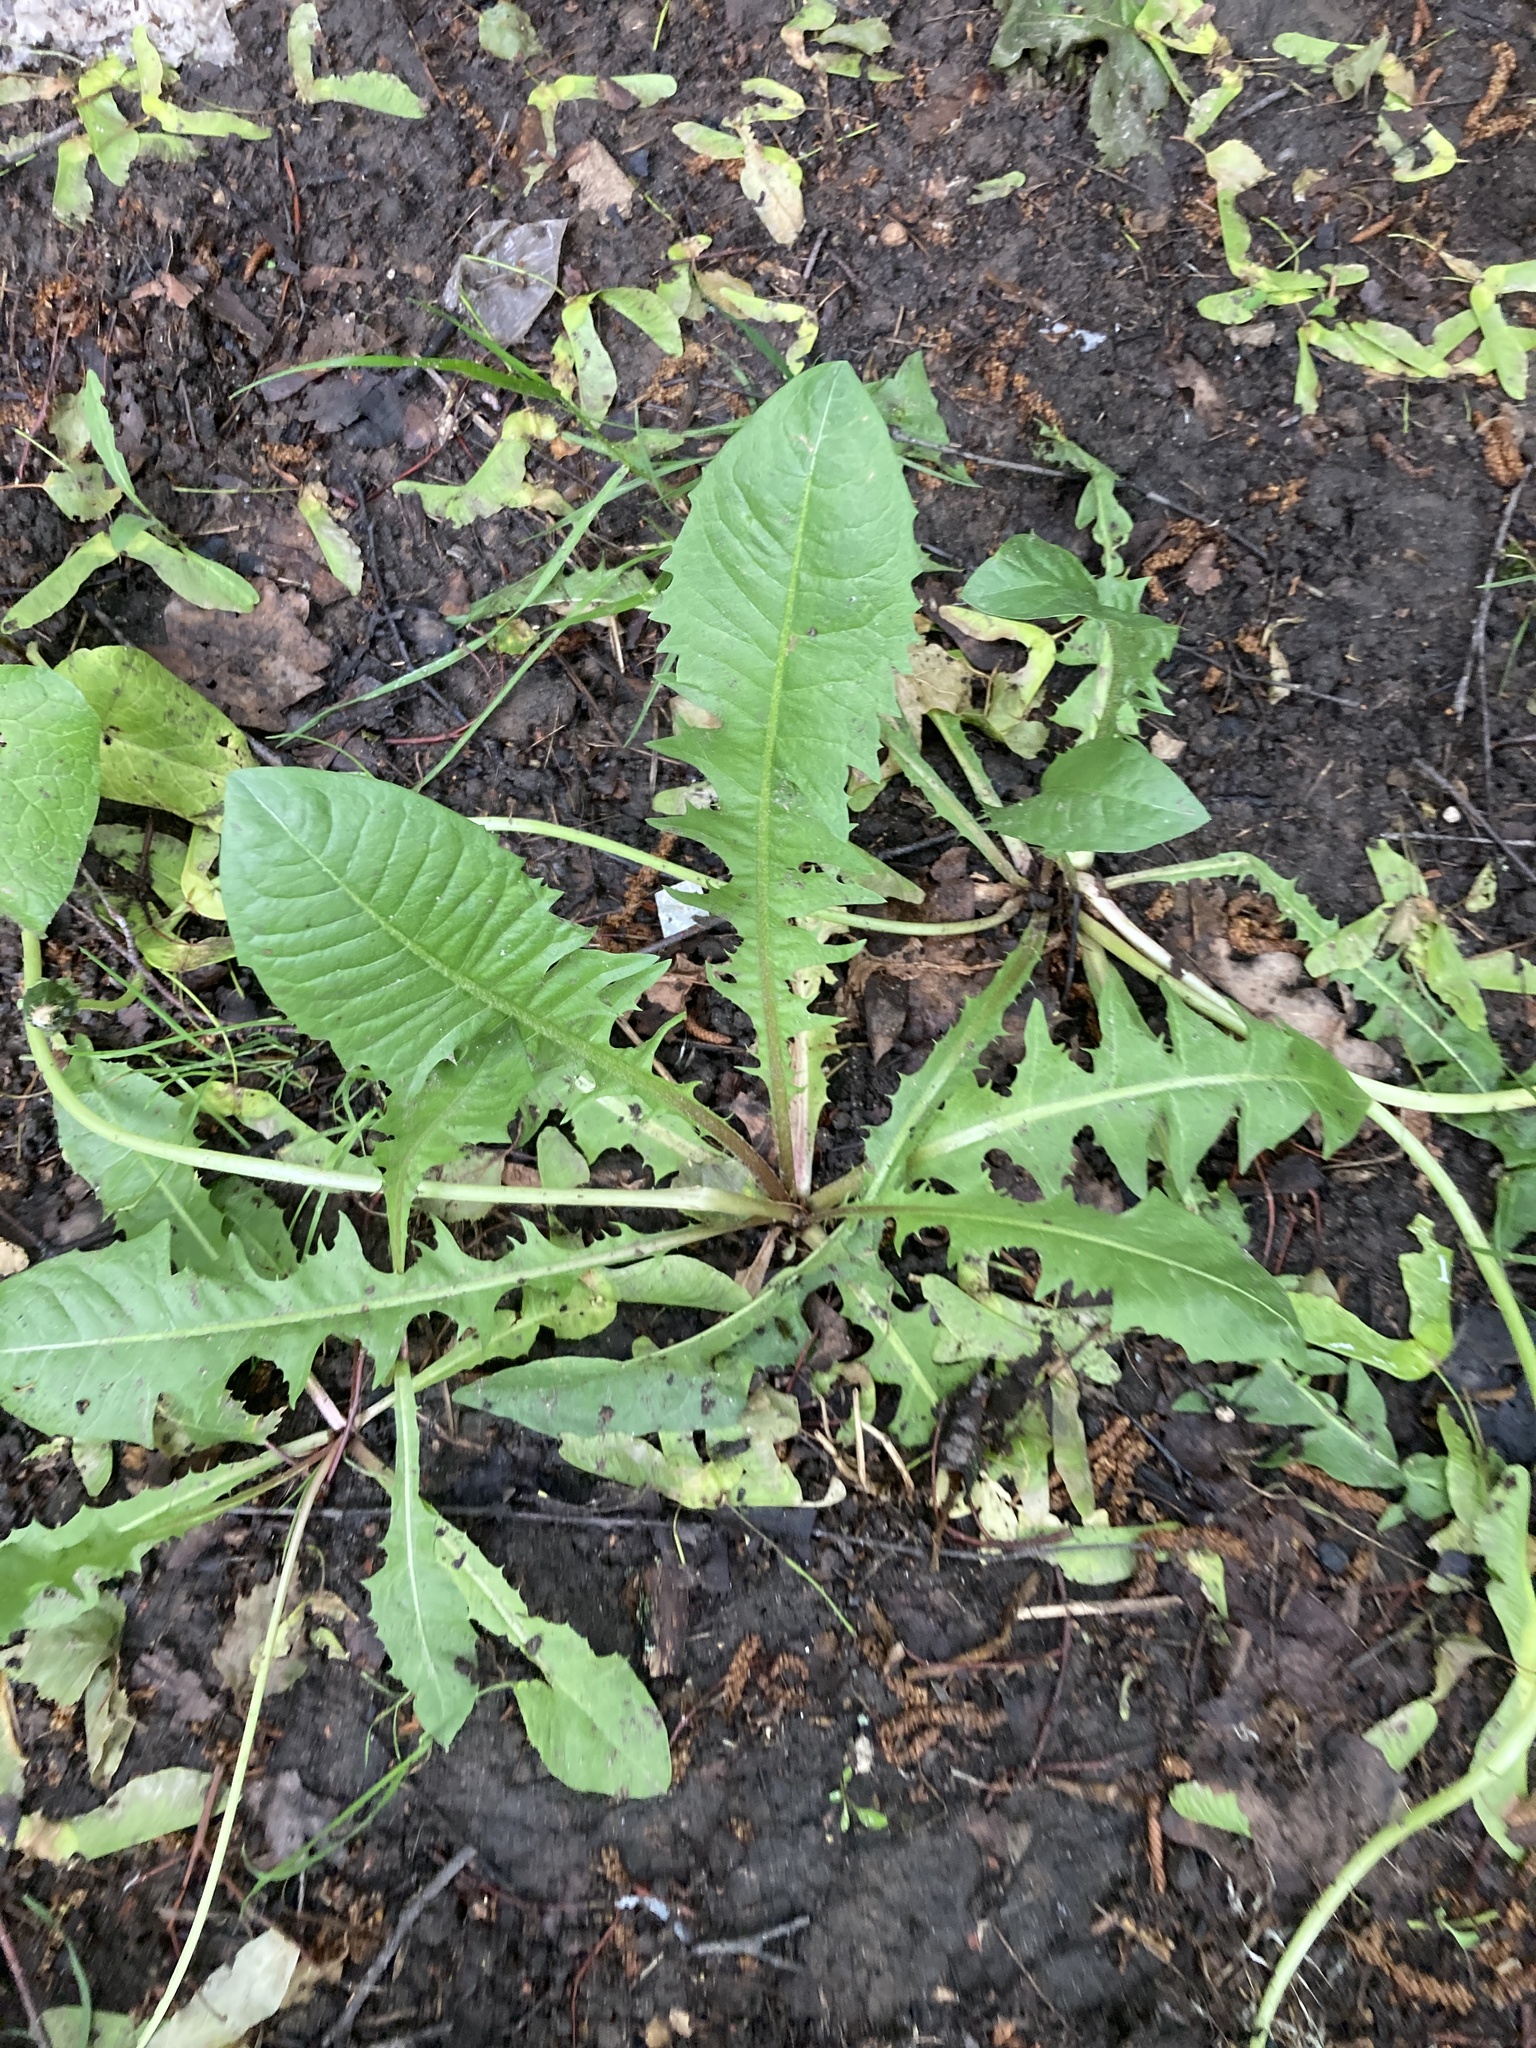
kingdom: Plantae
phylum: Tracheophyta
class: Magnoliopsida
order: Asterales
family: Asteraceae
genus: Taraxacum
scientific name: Taraxacum officinale
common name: Common dandelion
